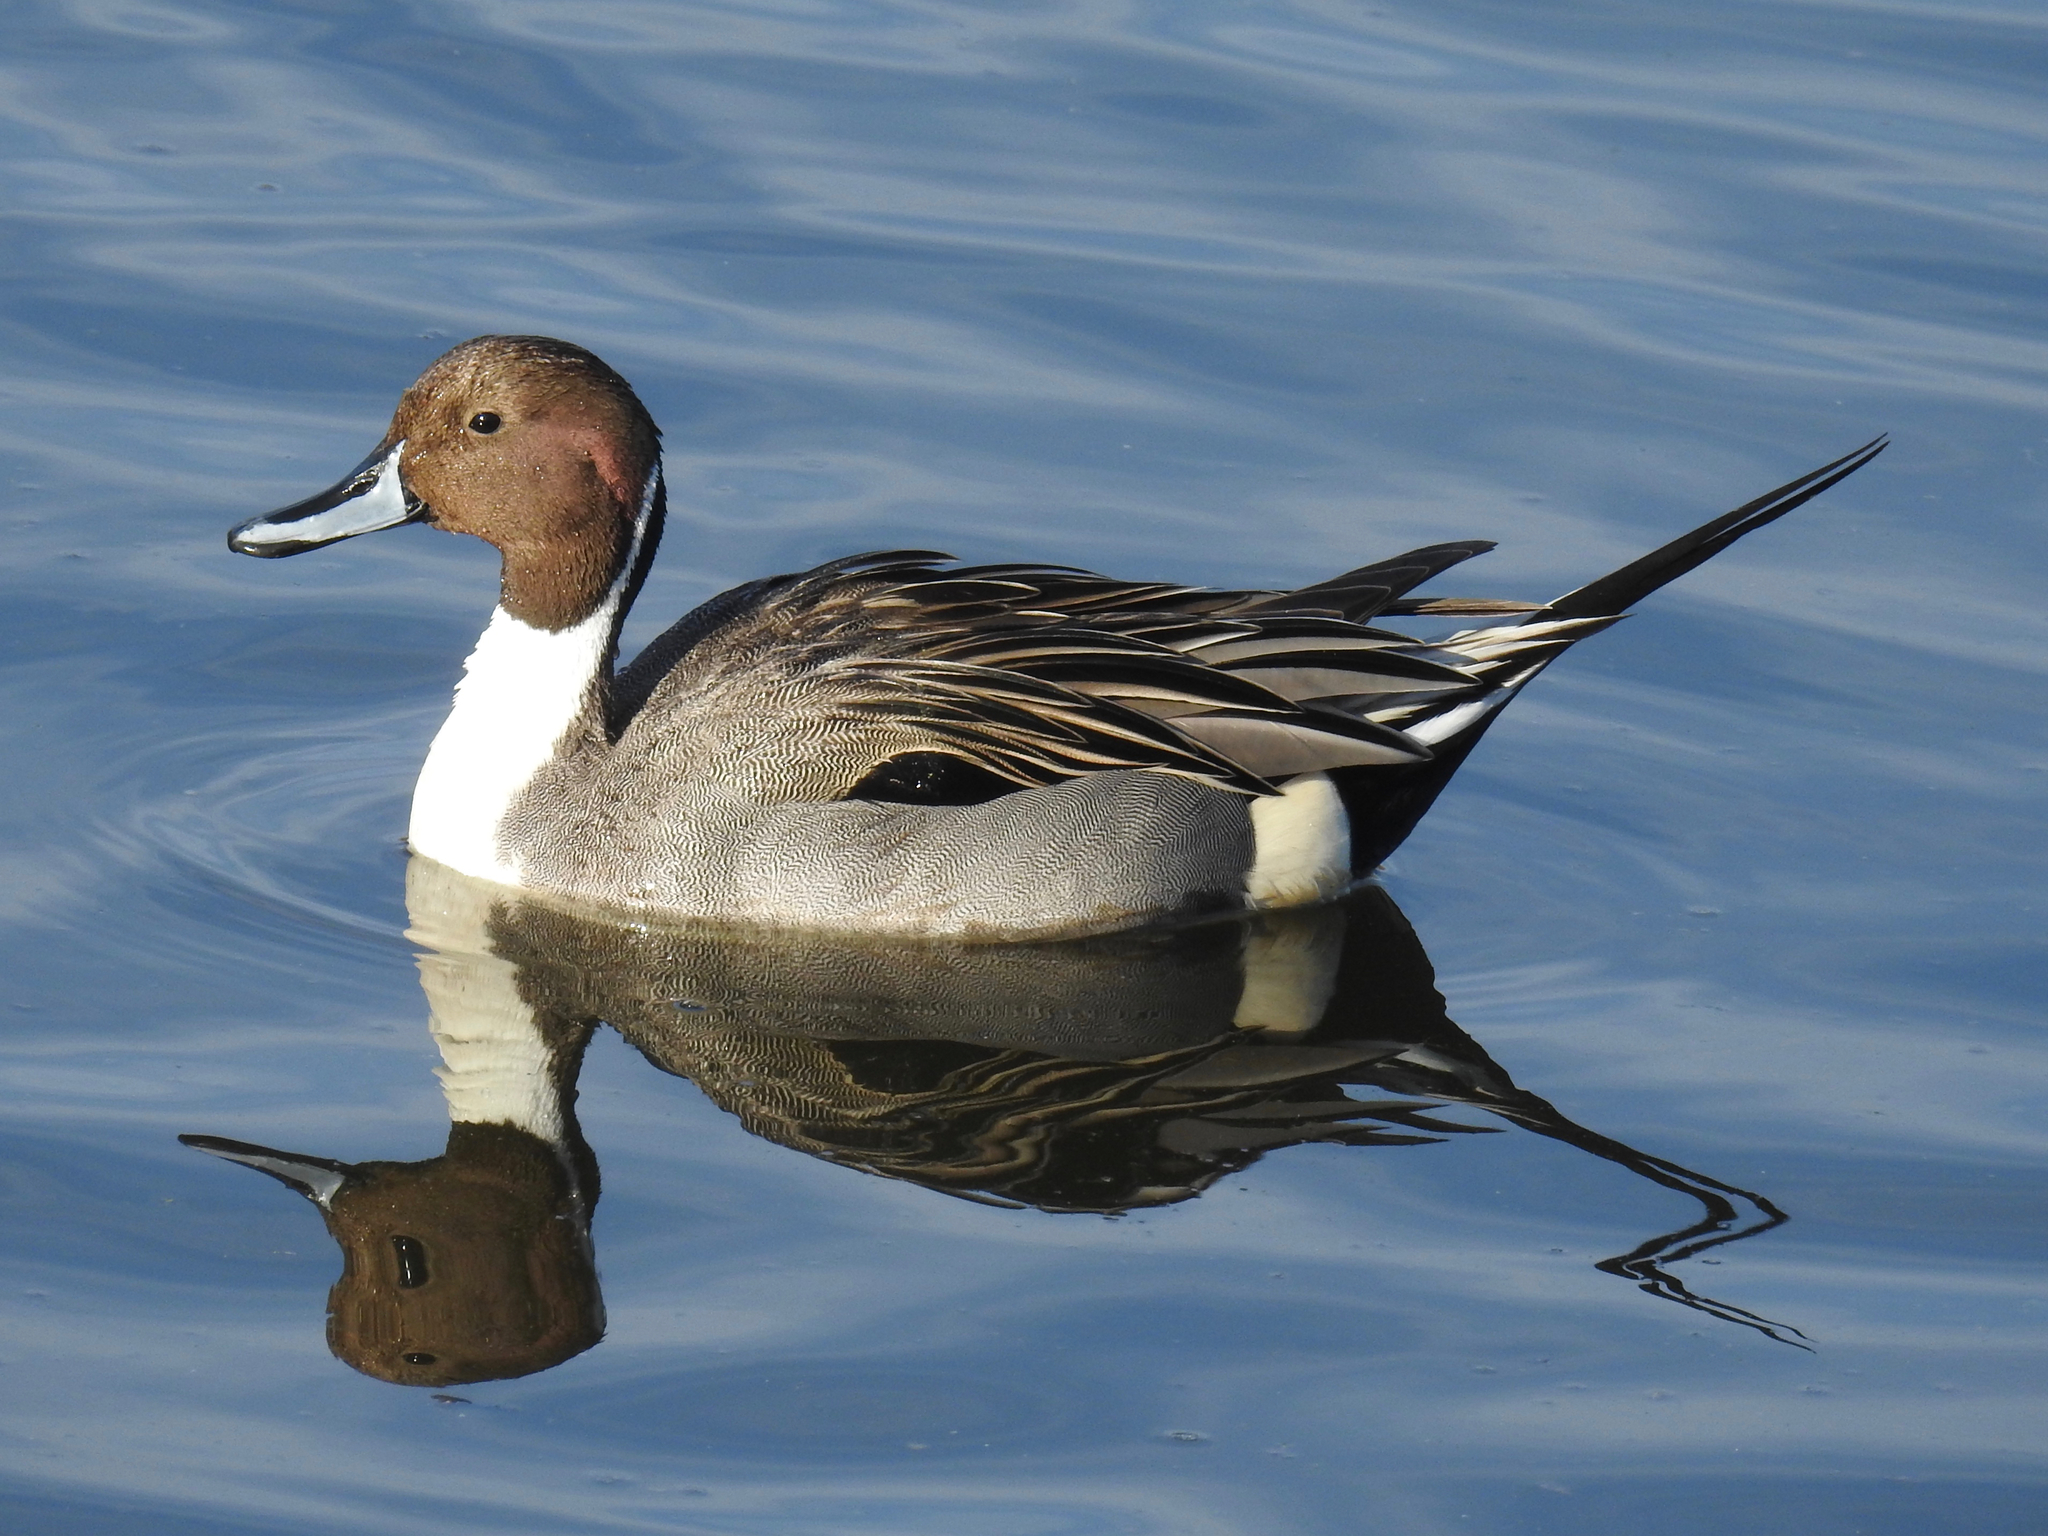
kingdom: Animalia
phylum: Chordata
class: Aves
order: Anseriformes
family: Anatidae
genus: Anas
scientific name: Anas acuta
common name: Northern pintail
